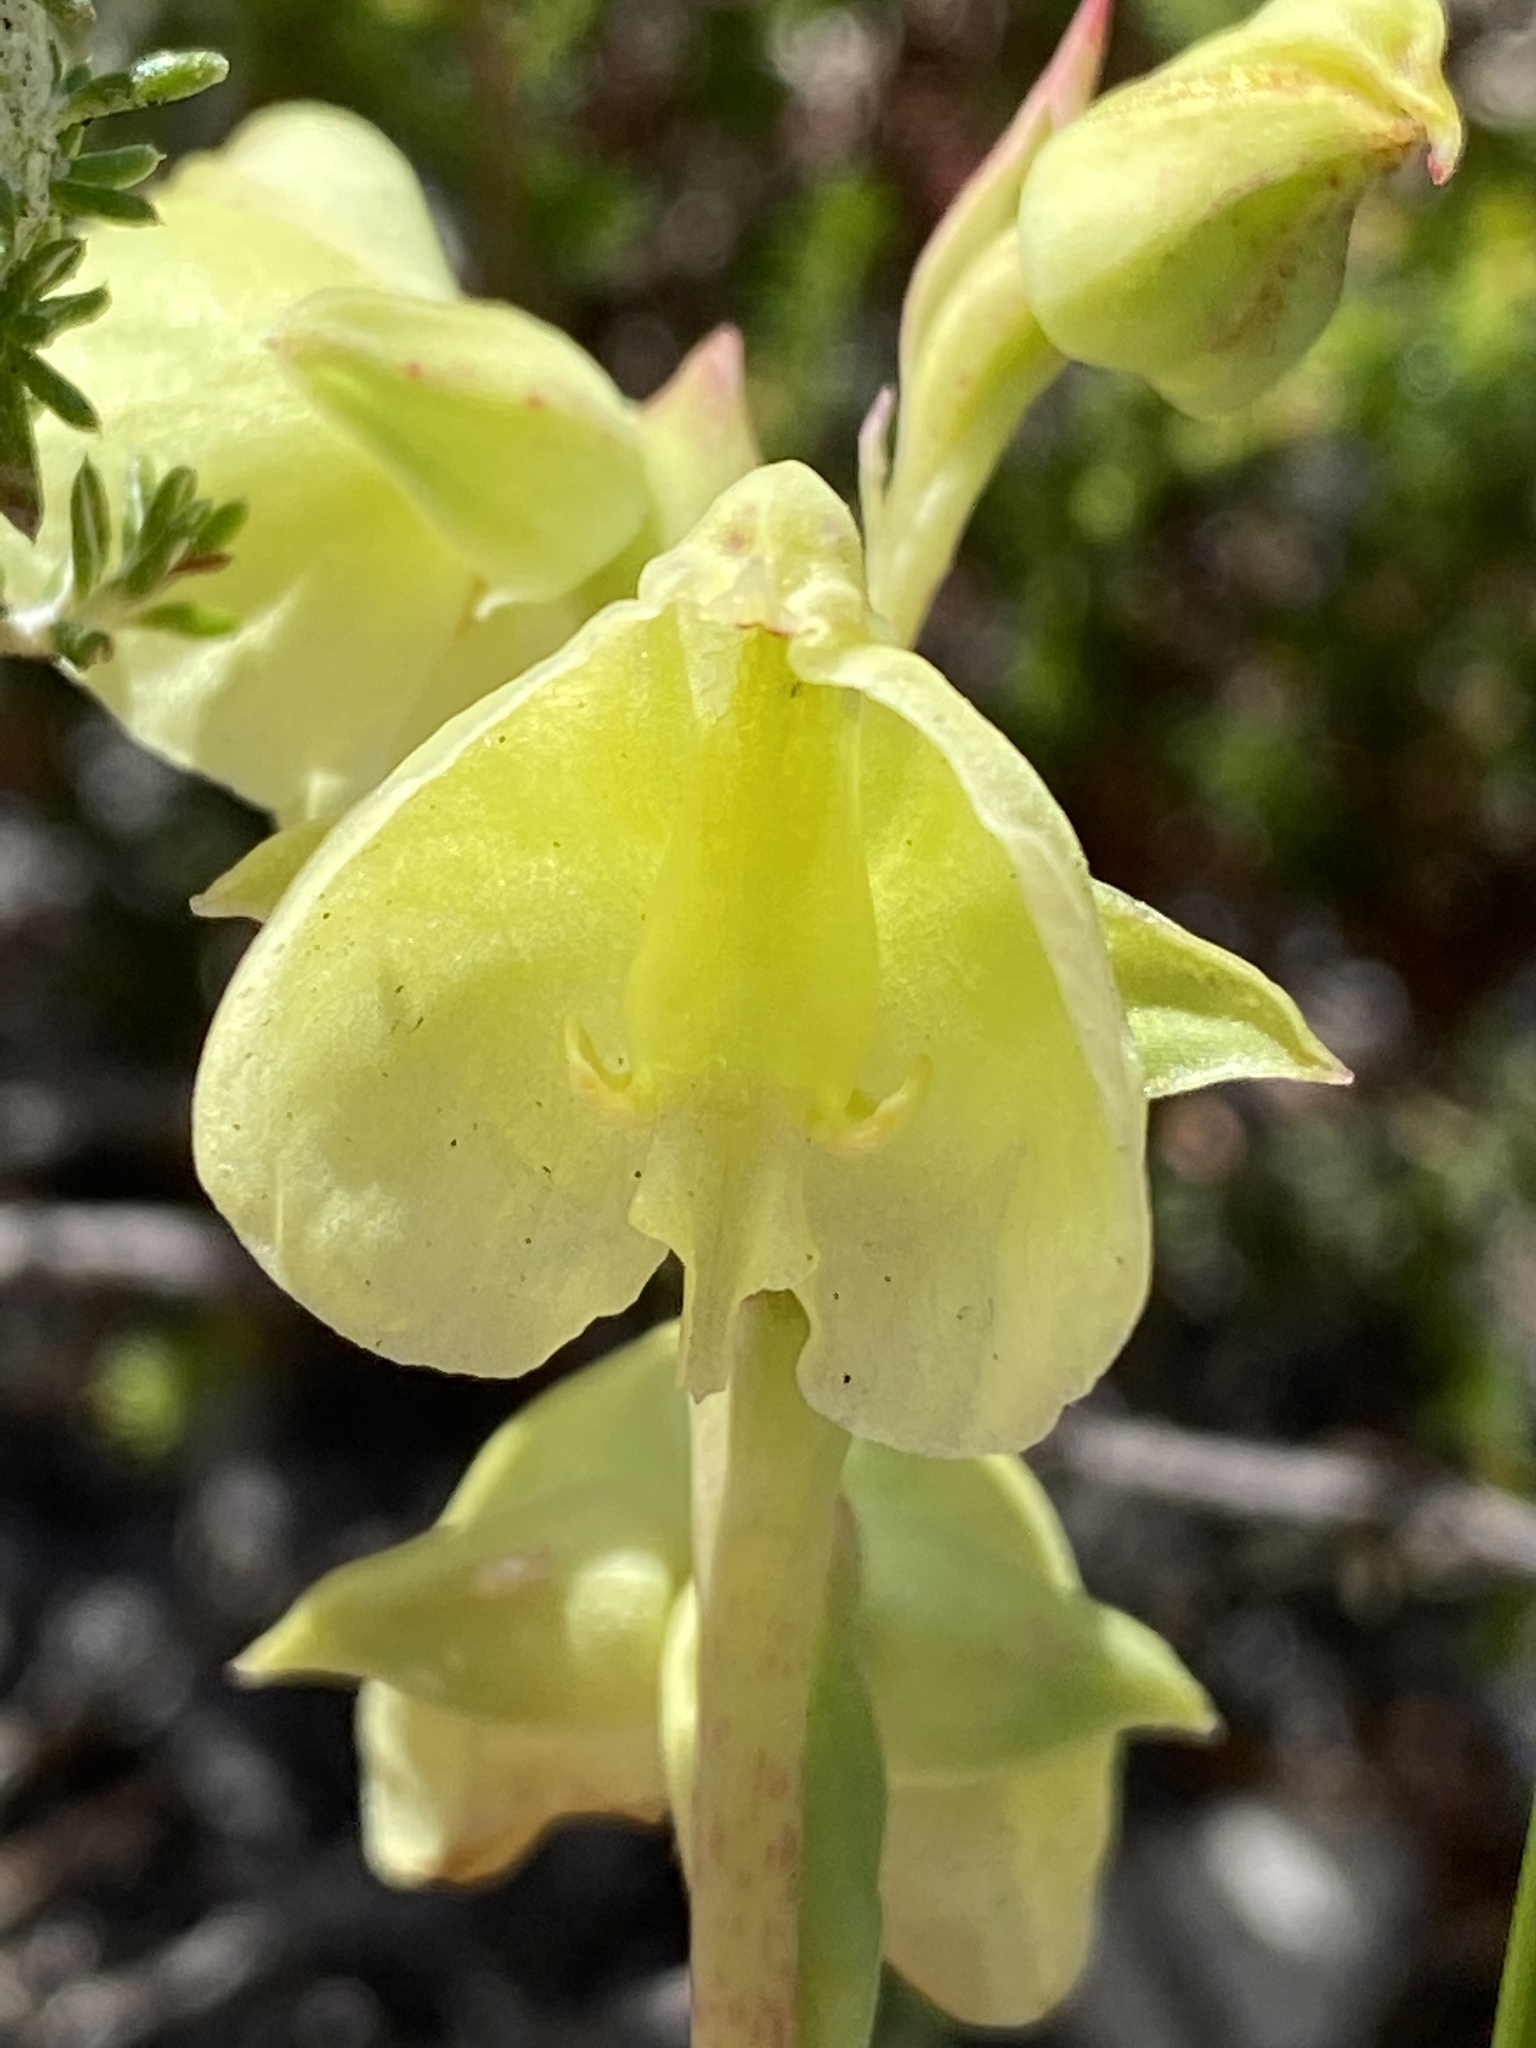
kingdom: Plantae
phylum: Tracheophyta
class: Liliopsida
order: Asparagales
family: Orchidaceae
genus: Pterygodium
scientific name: Pterygodium catholicum
